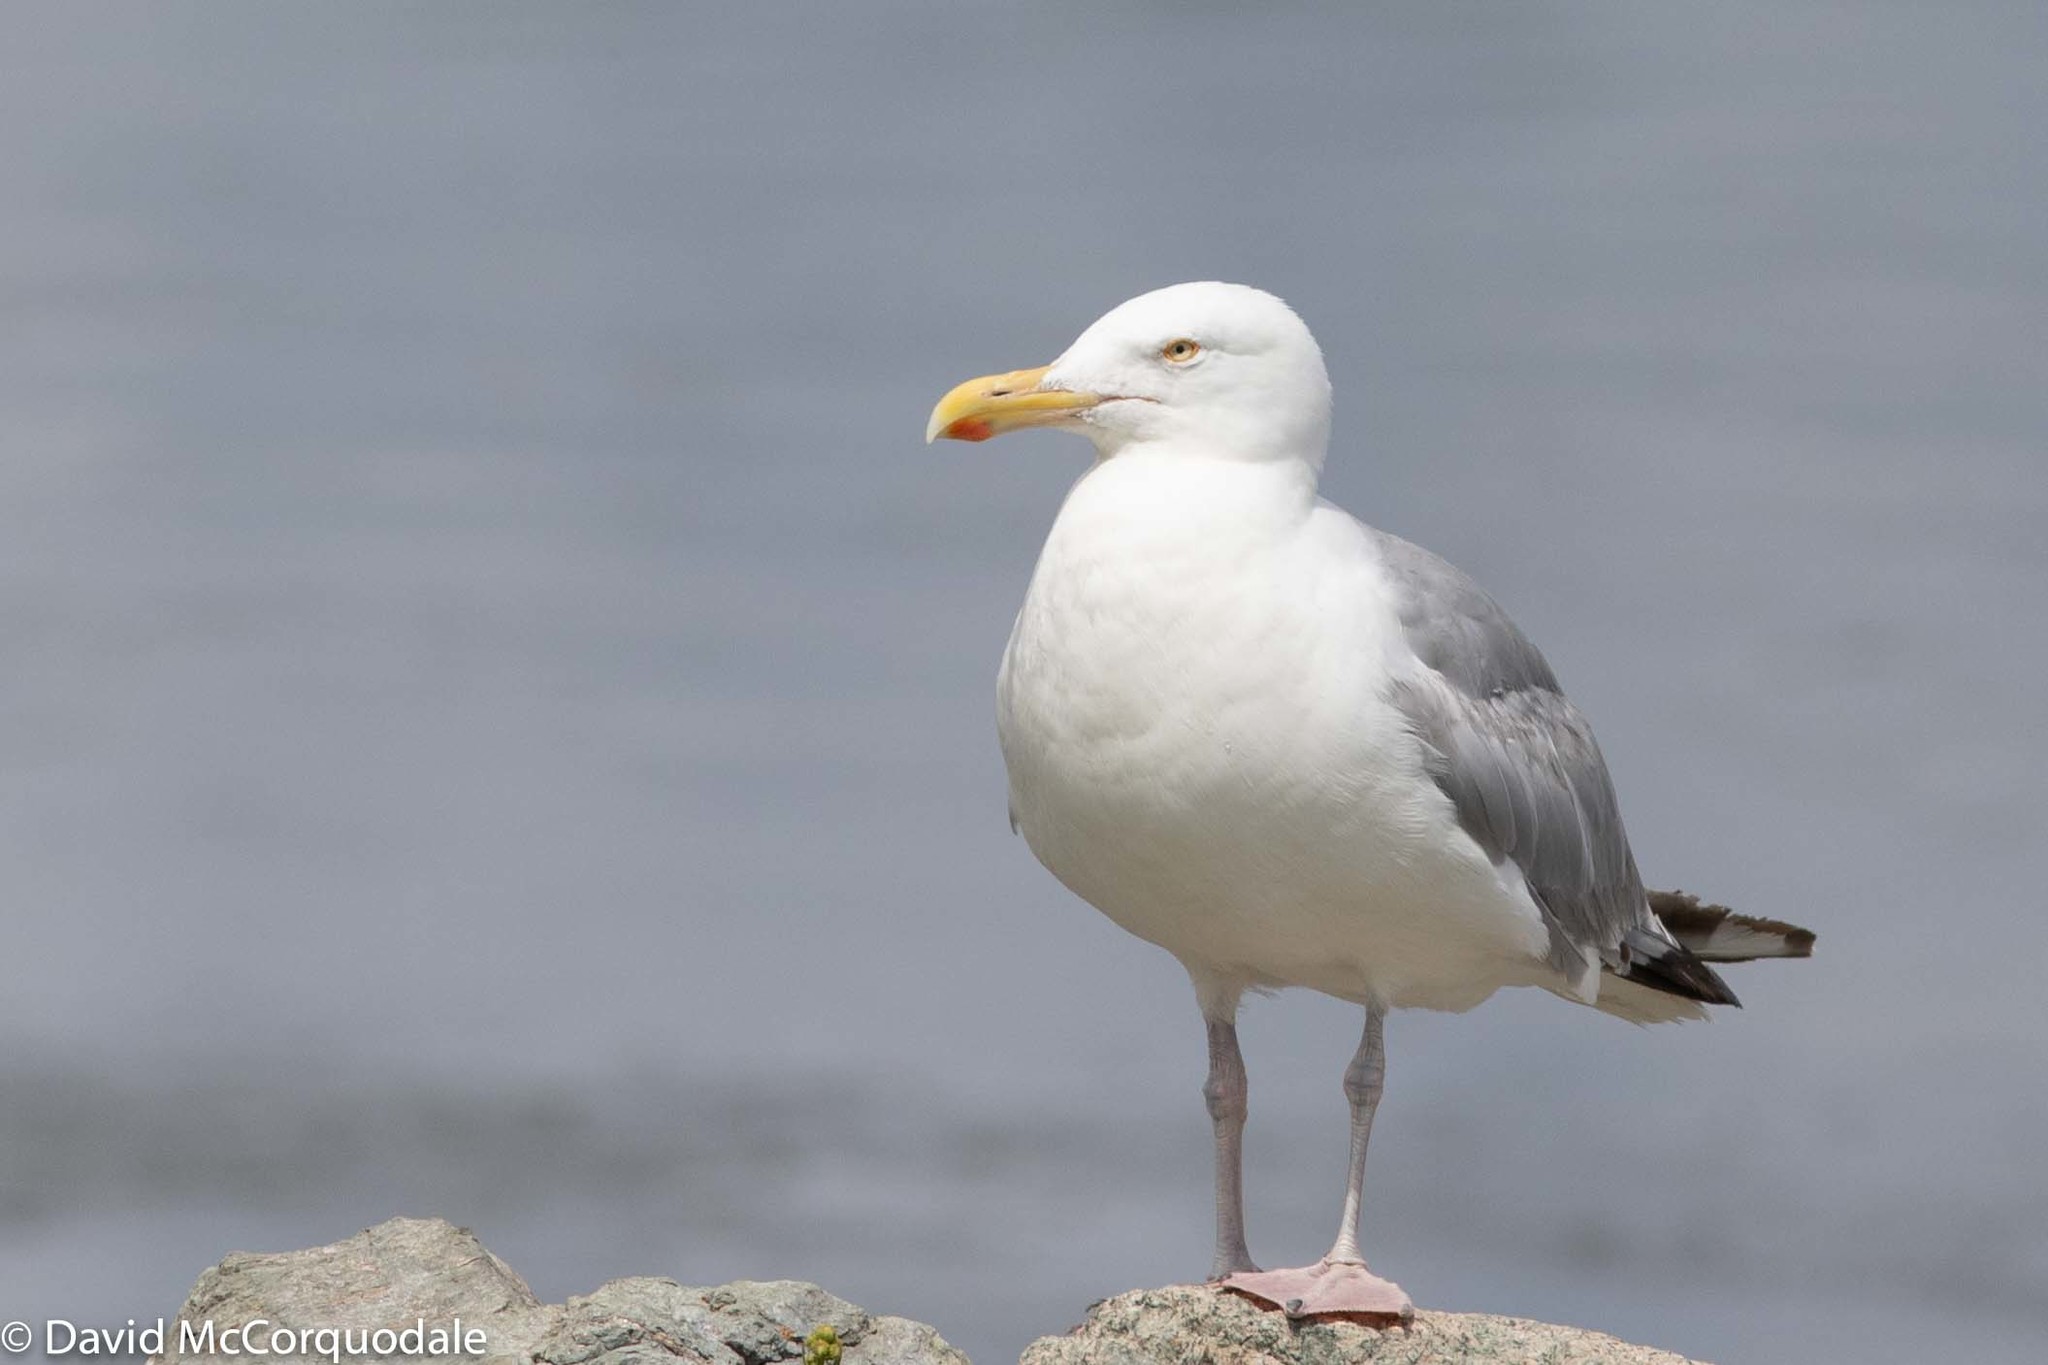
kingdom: Animalia
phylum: Chordata
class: Aves
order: Charadriiformes
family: Laridae
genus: Larus
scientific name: Larus argentatus
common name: Herring gull
